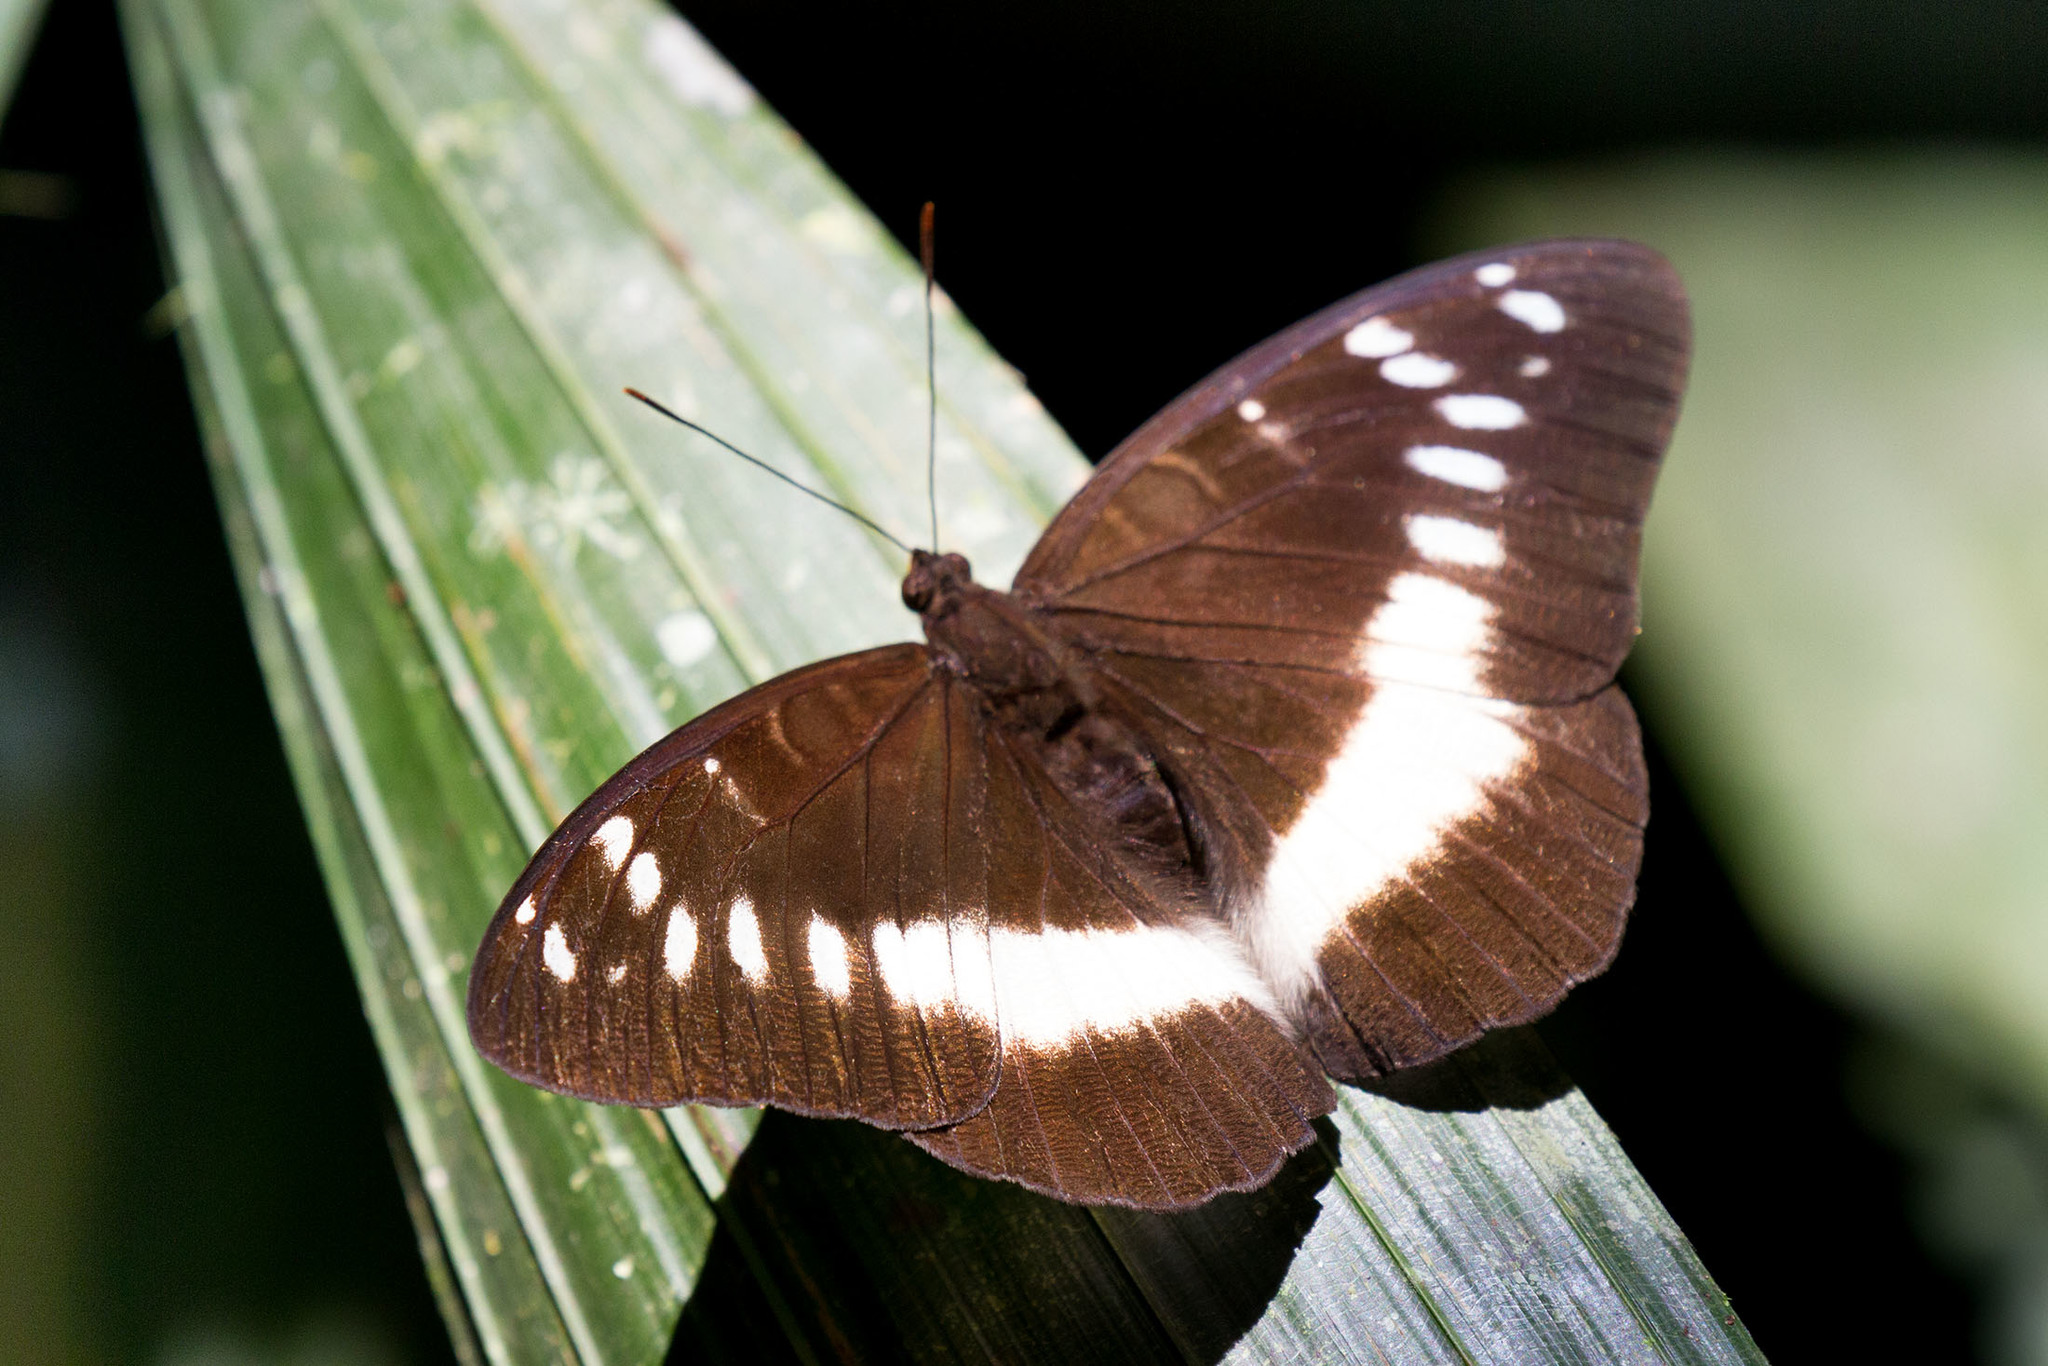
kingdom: Animalia
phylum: Arthropoda
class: Insecta
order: Lepidoptera
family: Nymphalidae
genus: Lexias
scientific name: Lexias aeropa
